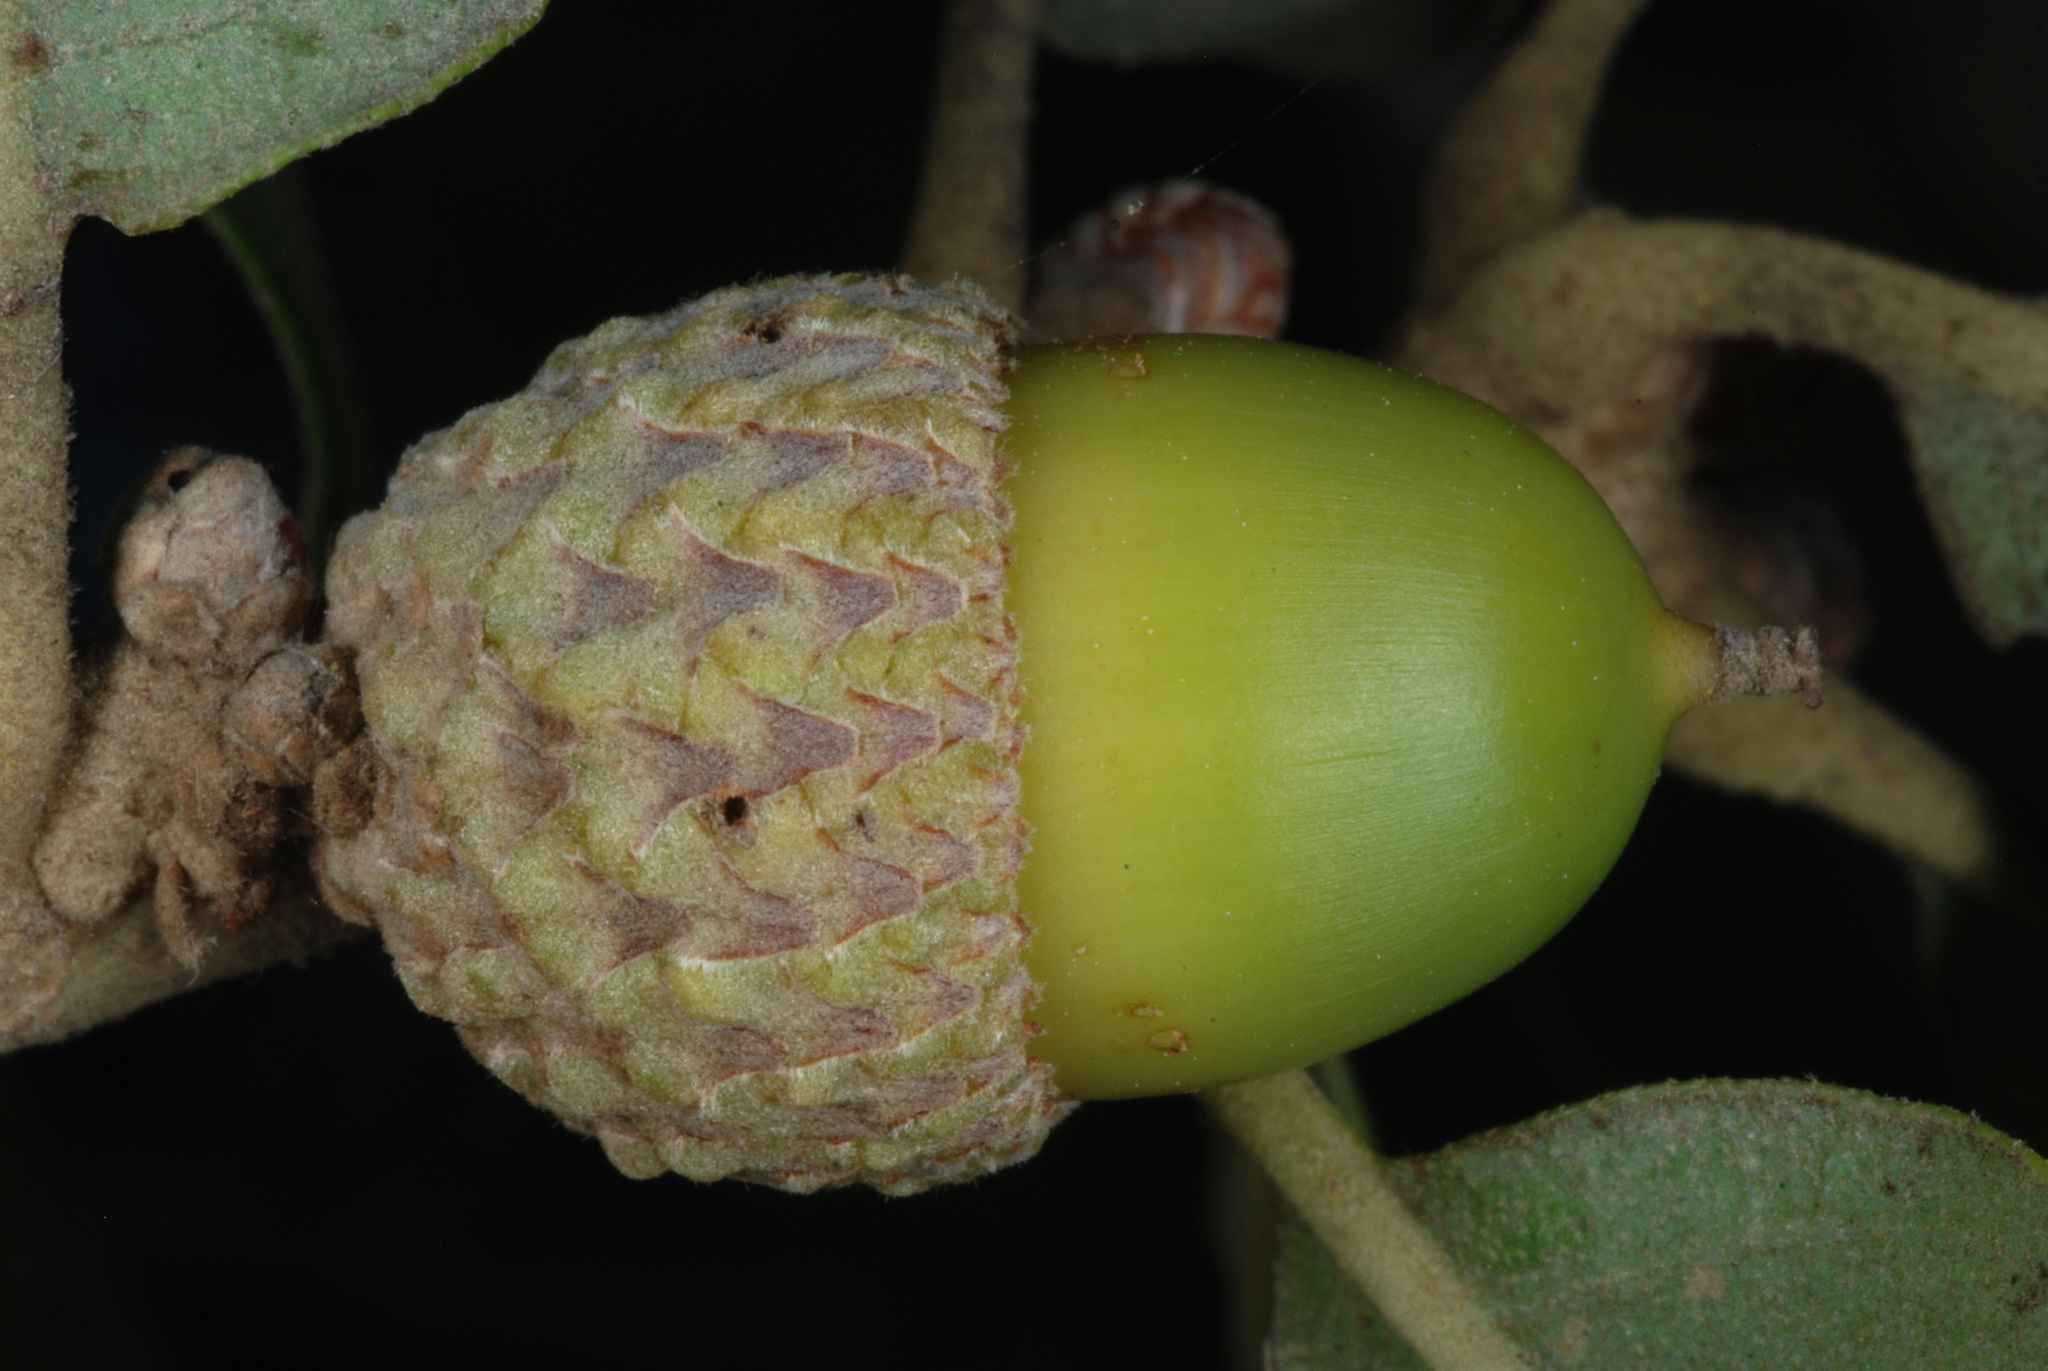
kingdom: Plantae
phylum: Tracheophyta
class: Magnoliopsida
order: Fagales
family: Fagaceae
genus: Quercus
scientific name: Quercus drummondii
